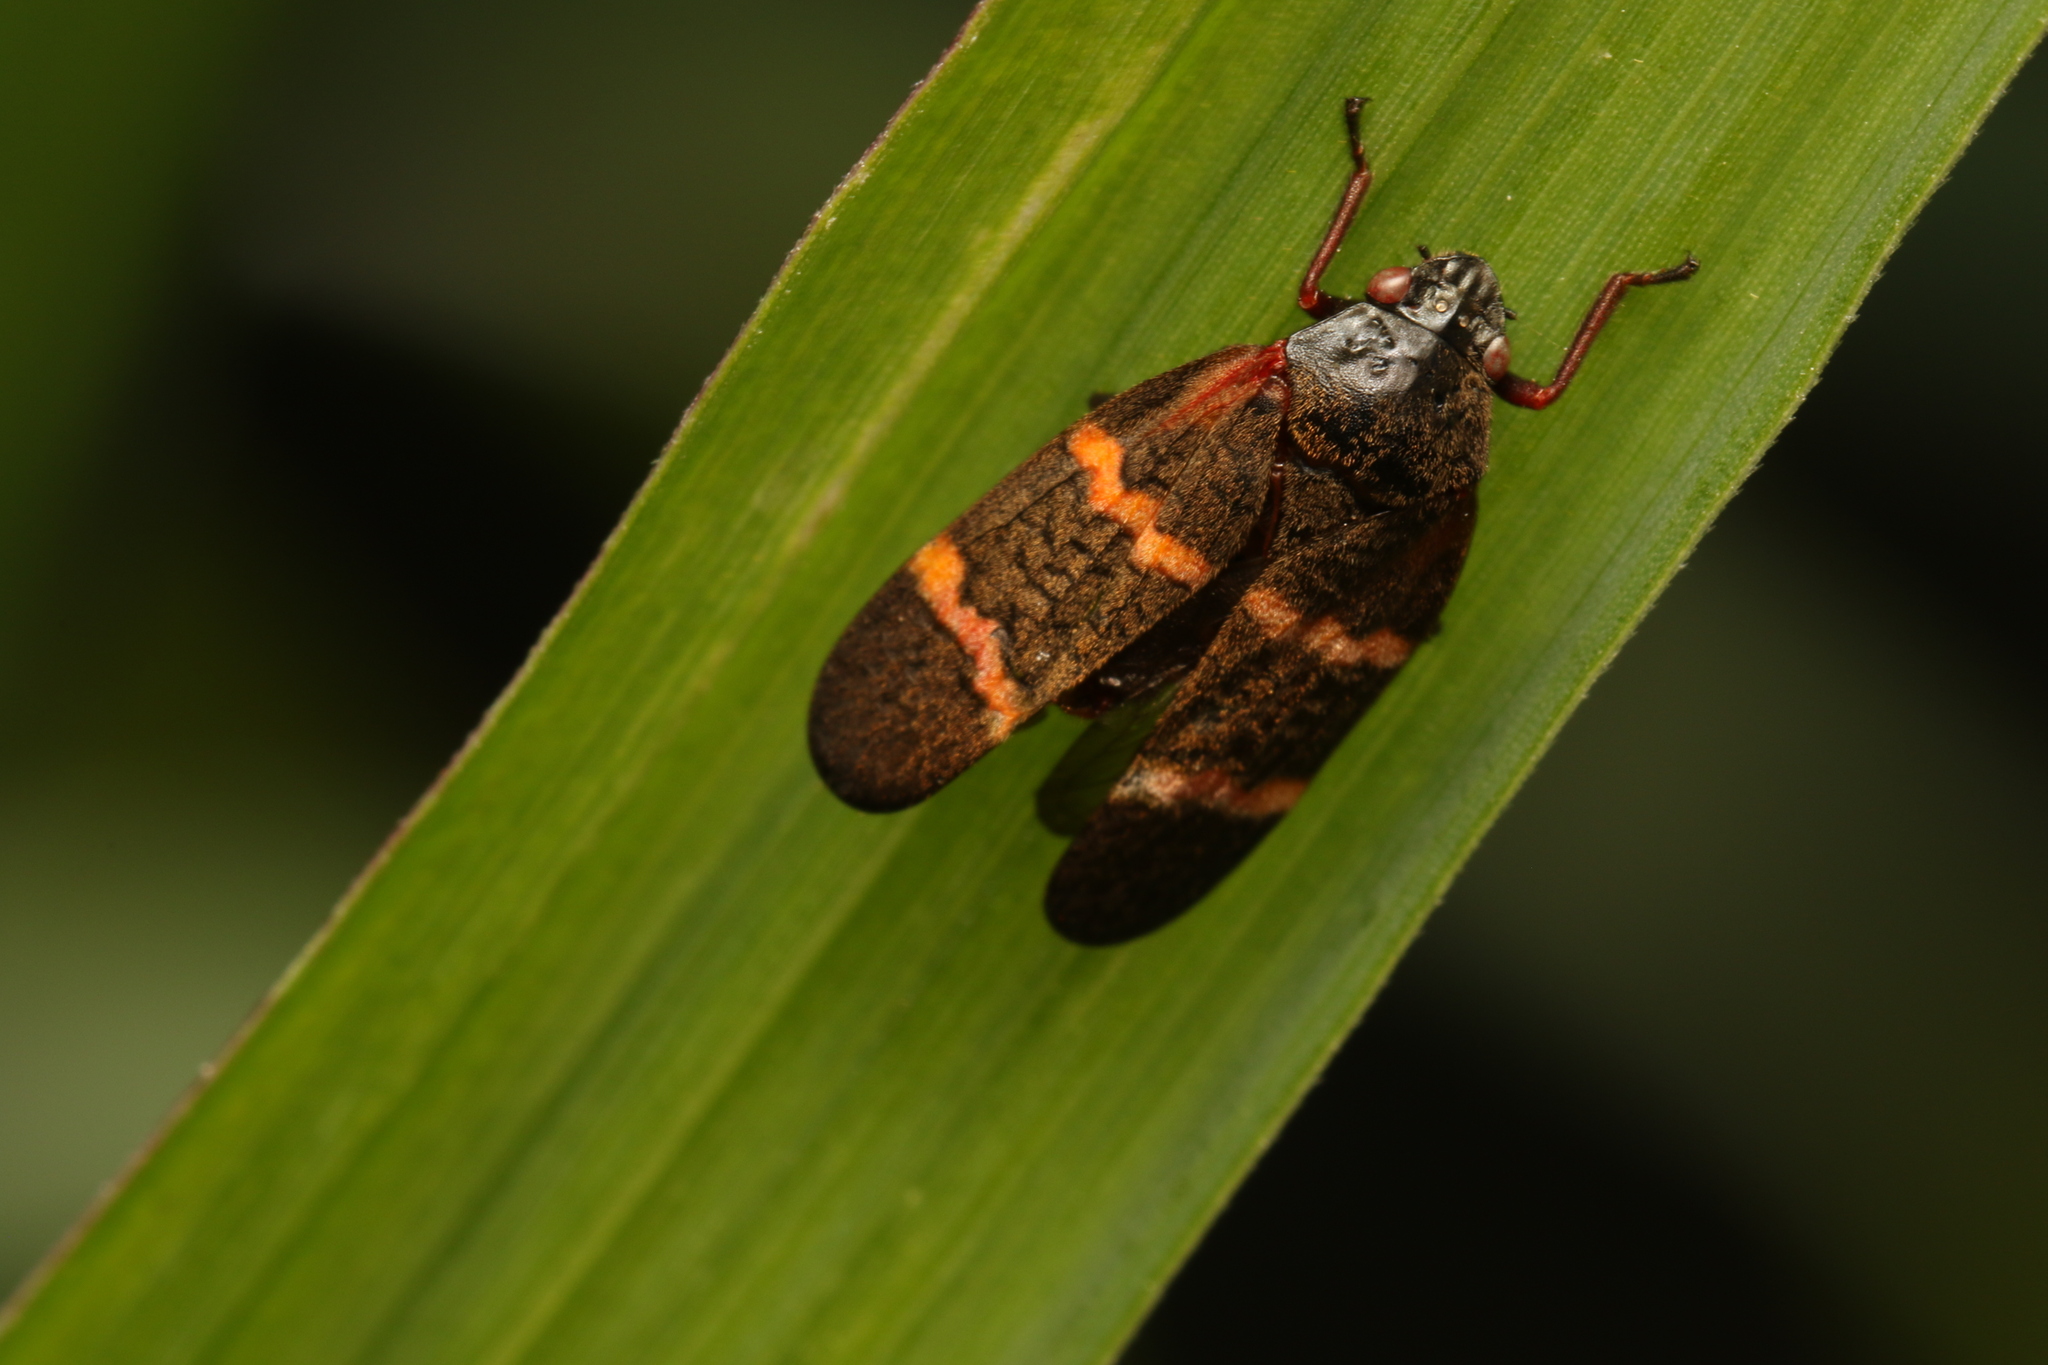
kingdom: Animalia
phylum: Arthropoda
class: Insecta
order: Hemiptera
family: Cercopidae
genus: Mahanarva
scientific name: Mahanarva
